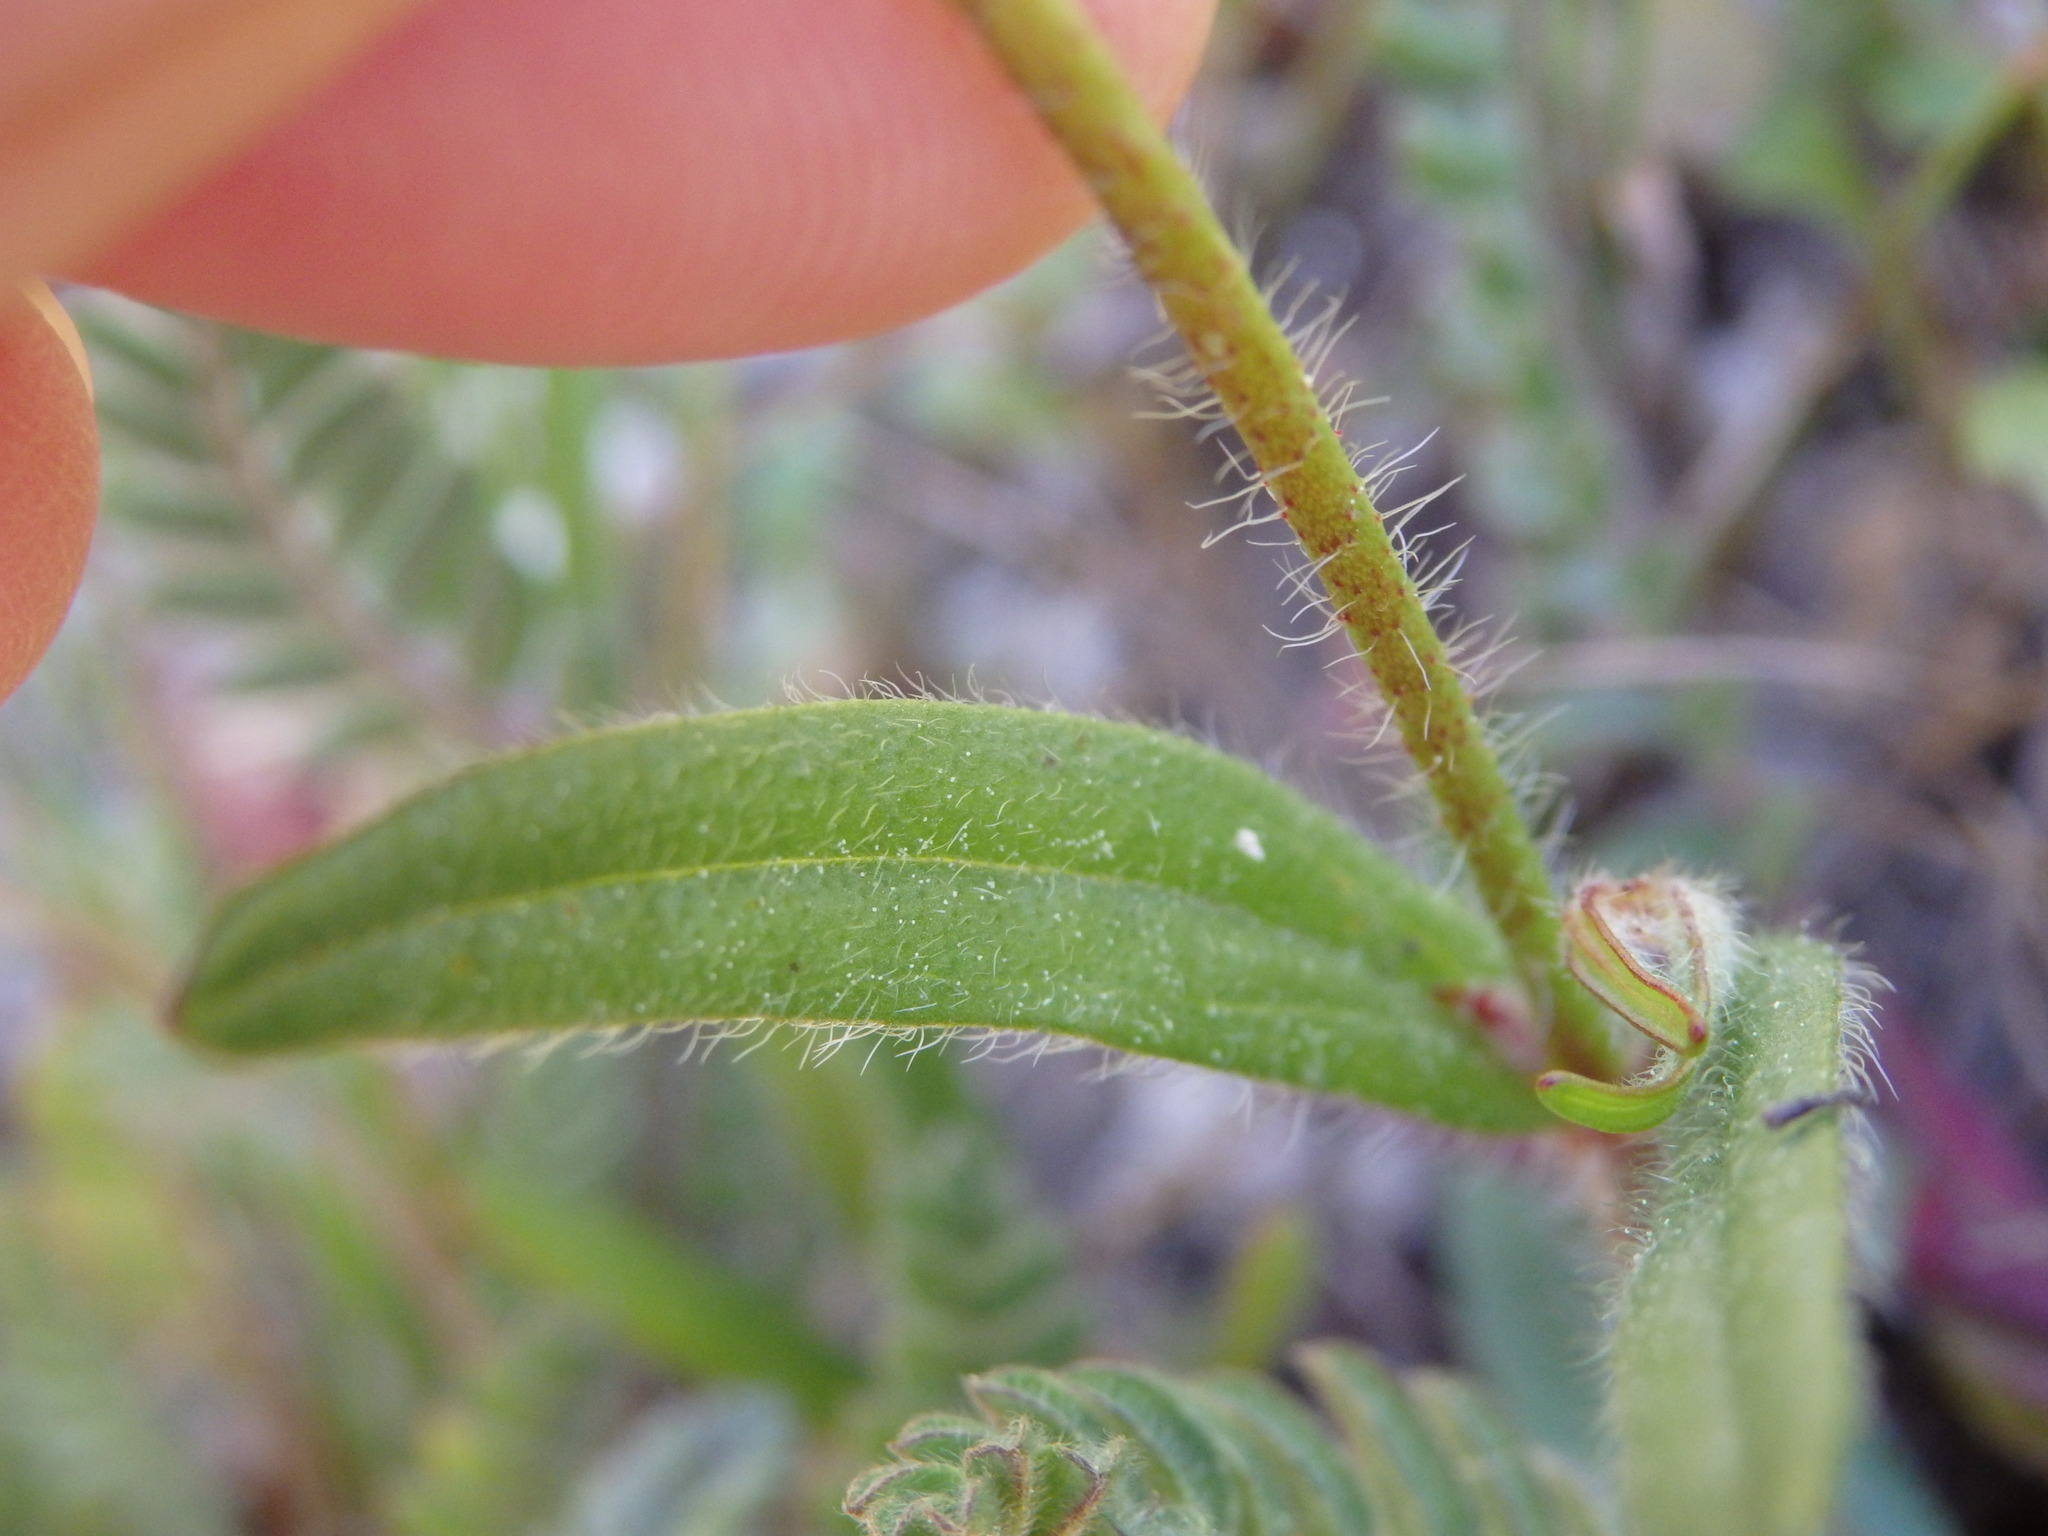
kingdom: Plantae
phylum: Tracheophyta
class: Magnoliopsida
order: Malvales
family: Cistaceae
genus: Tuberaria
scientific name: Tuberaria guttata
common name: Spotted rock-rose
